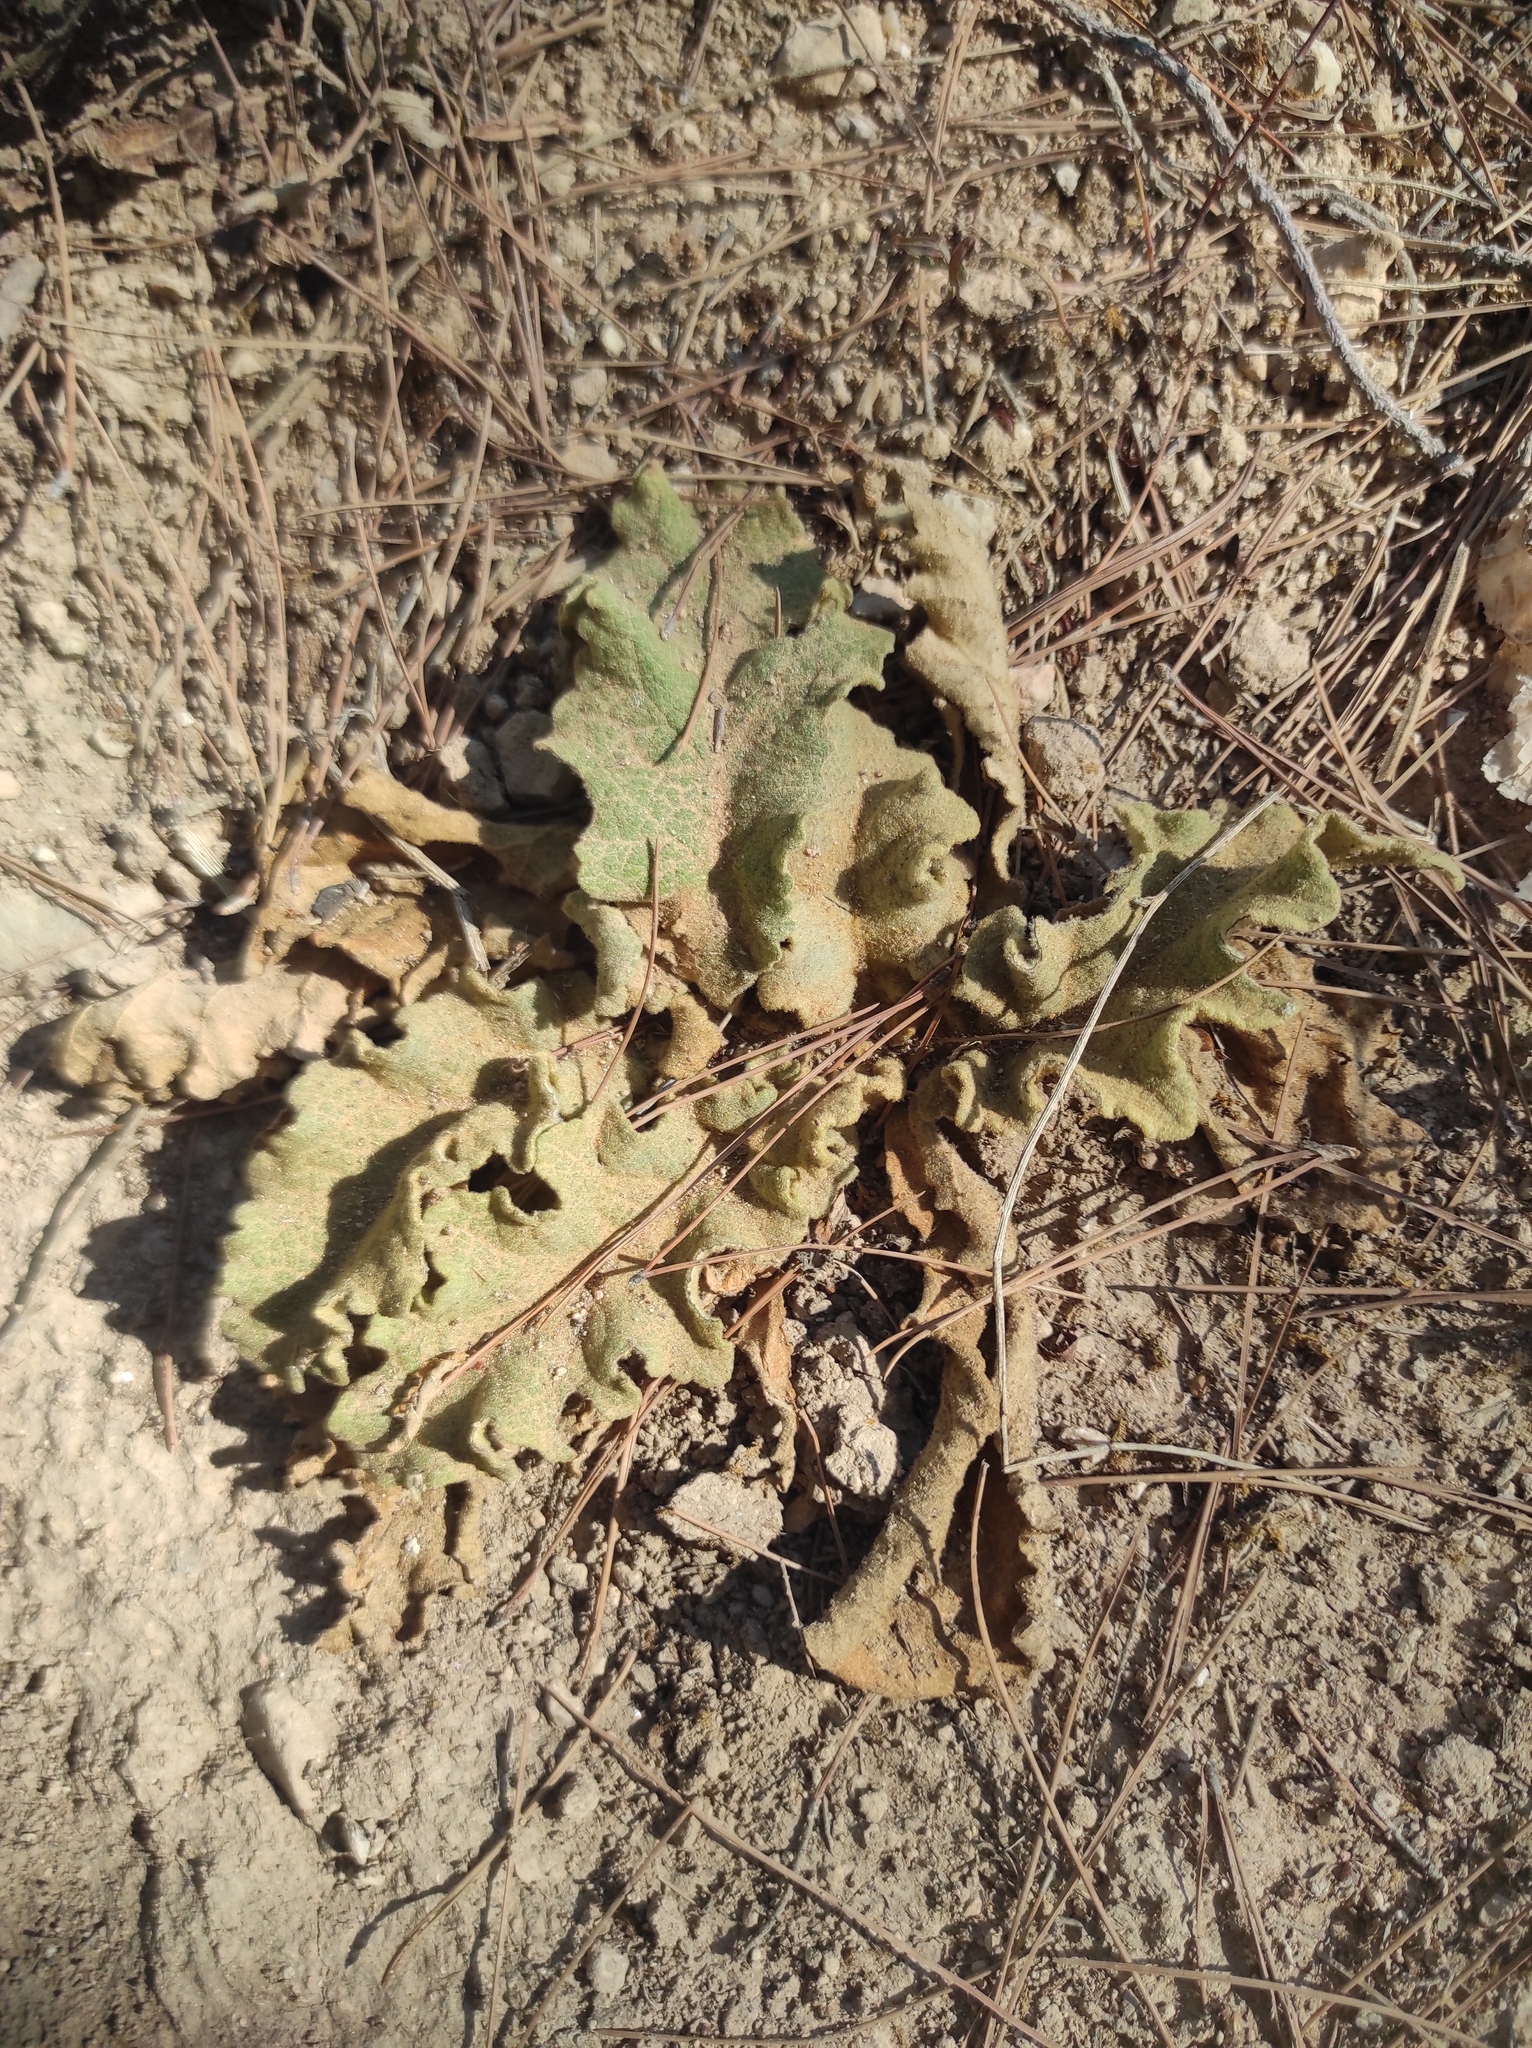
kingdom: Plantae
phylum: Tracheophyta
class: Magnoliopsida
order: Lamiales
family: Scrophulariaceae
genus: Verbascum
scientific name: Verbascum sinuatum
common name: Wavyleaf mullein
